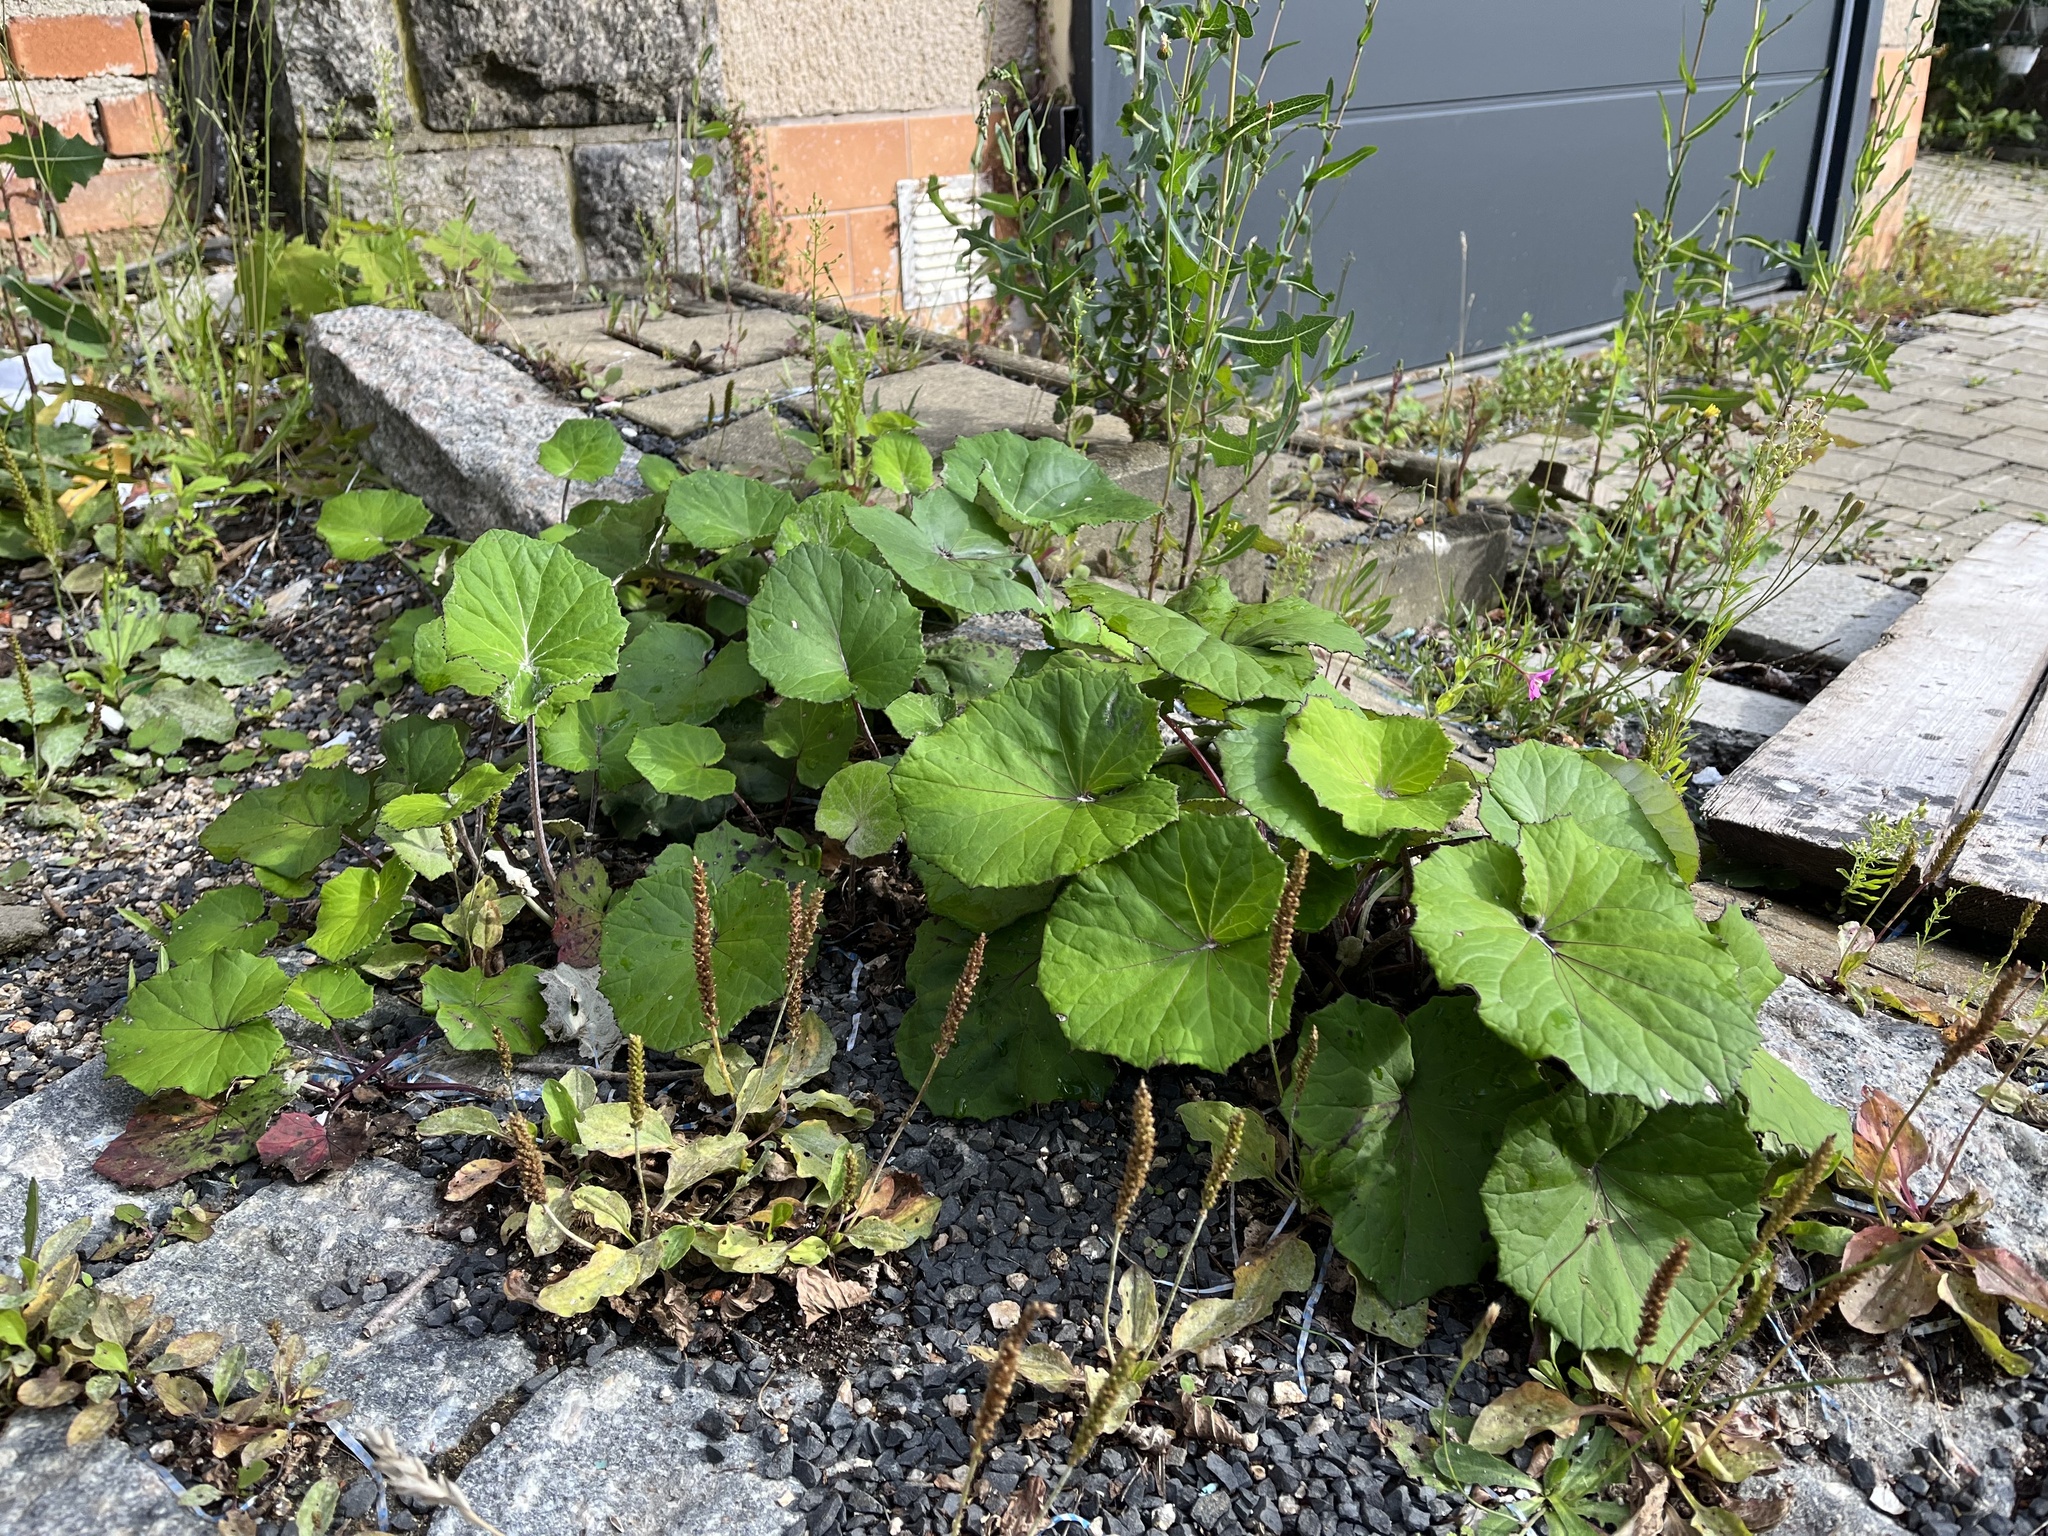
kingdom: Plantae
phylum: Tracheophyta
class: Magnoliopsida
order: Asterales
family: Asteraceae
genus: Tussilago
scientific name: Tussilago farfara
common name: Coltsfoot
